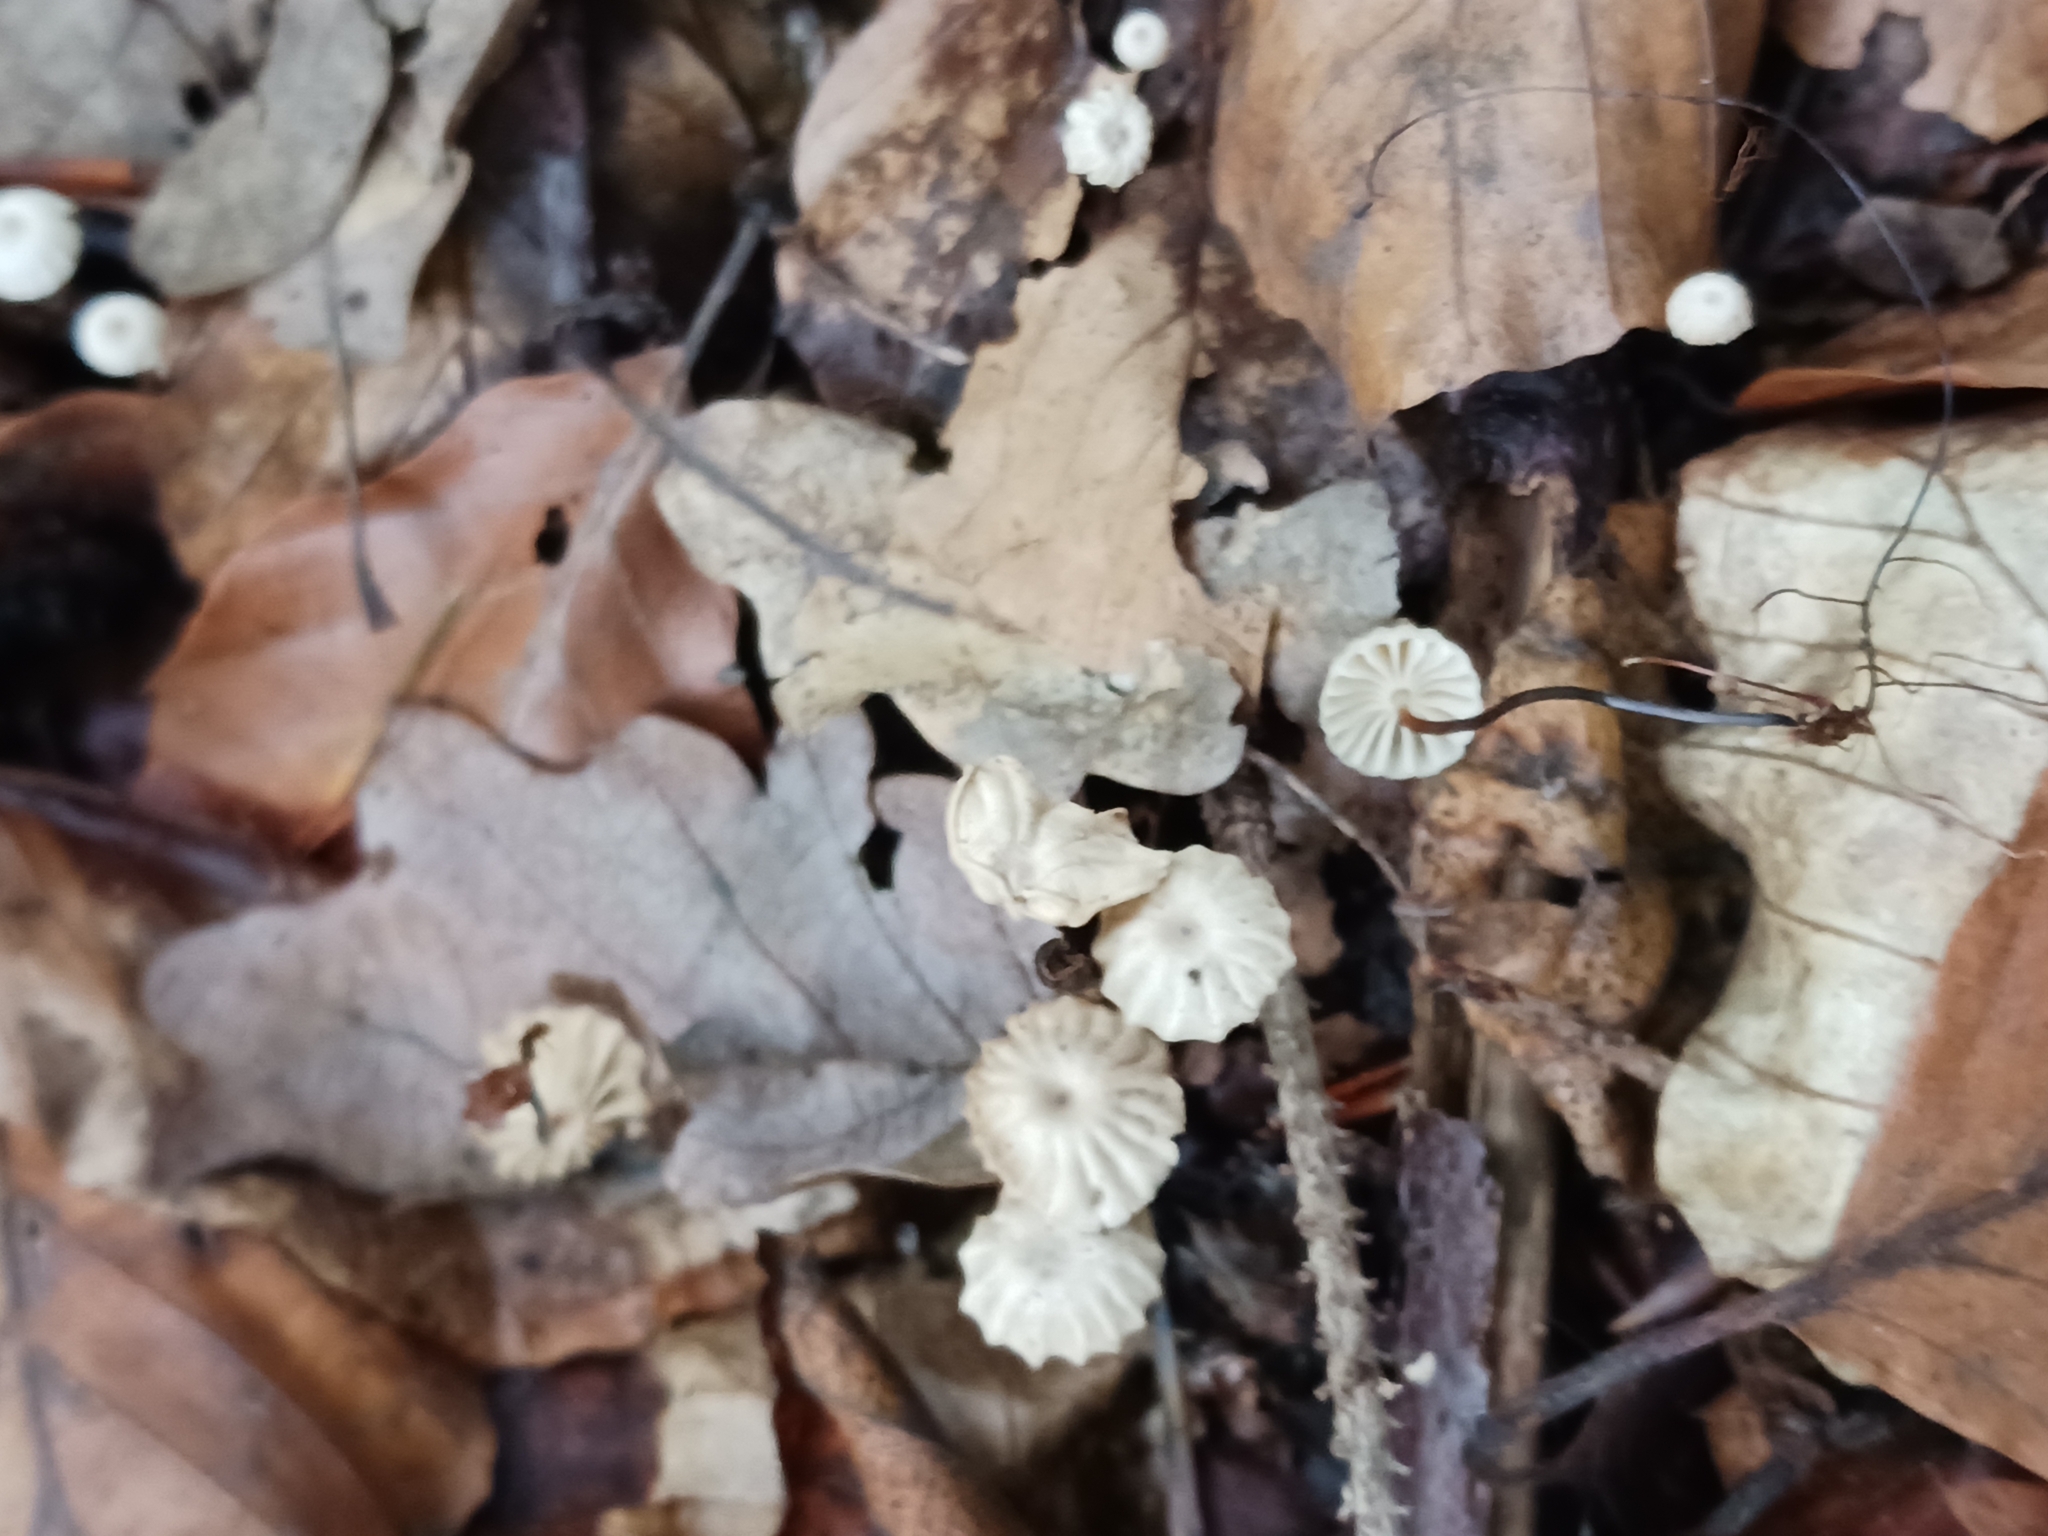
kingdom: Fungi
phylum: Basidiomycota
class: Agaricomycetes
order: Agaricales
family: Marasmiaceae
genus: Marasmius
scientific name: Marasmius rotula
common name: Collared parachute
